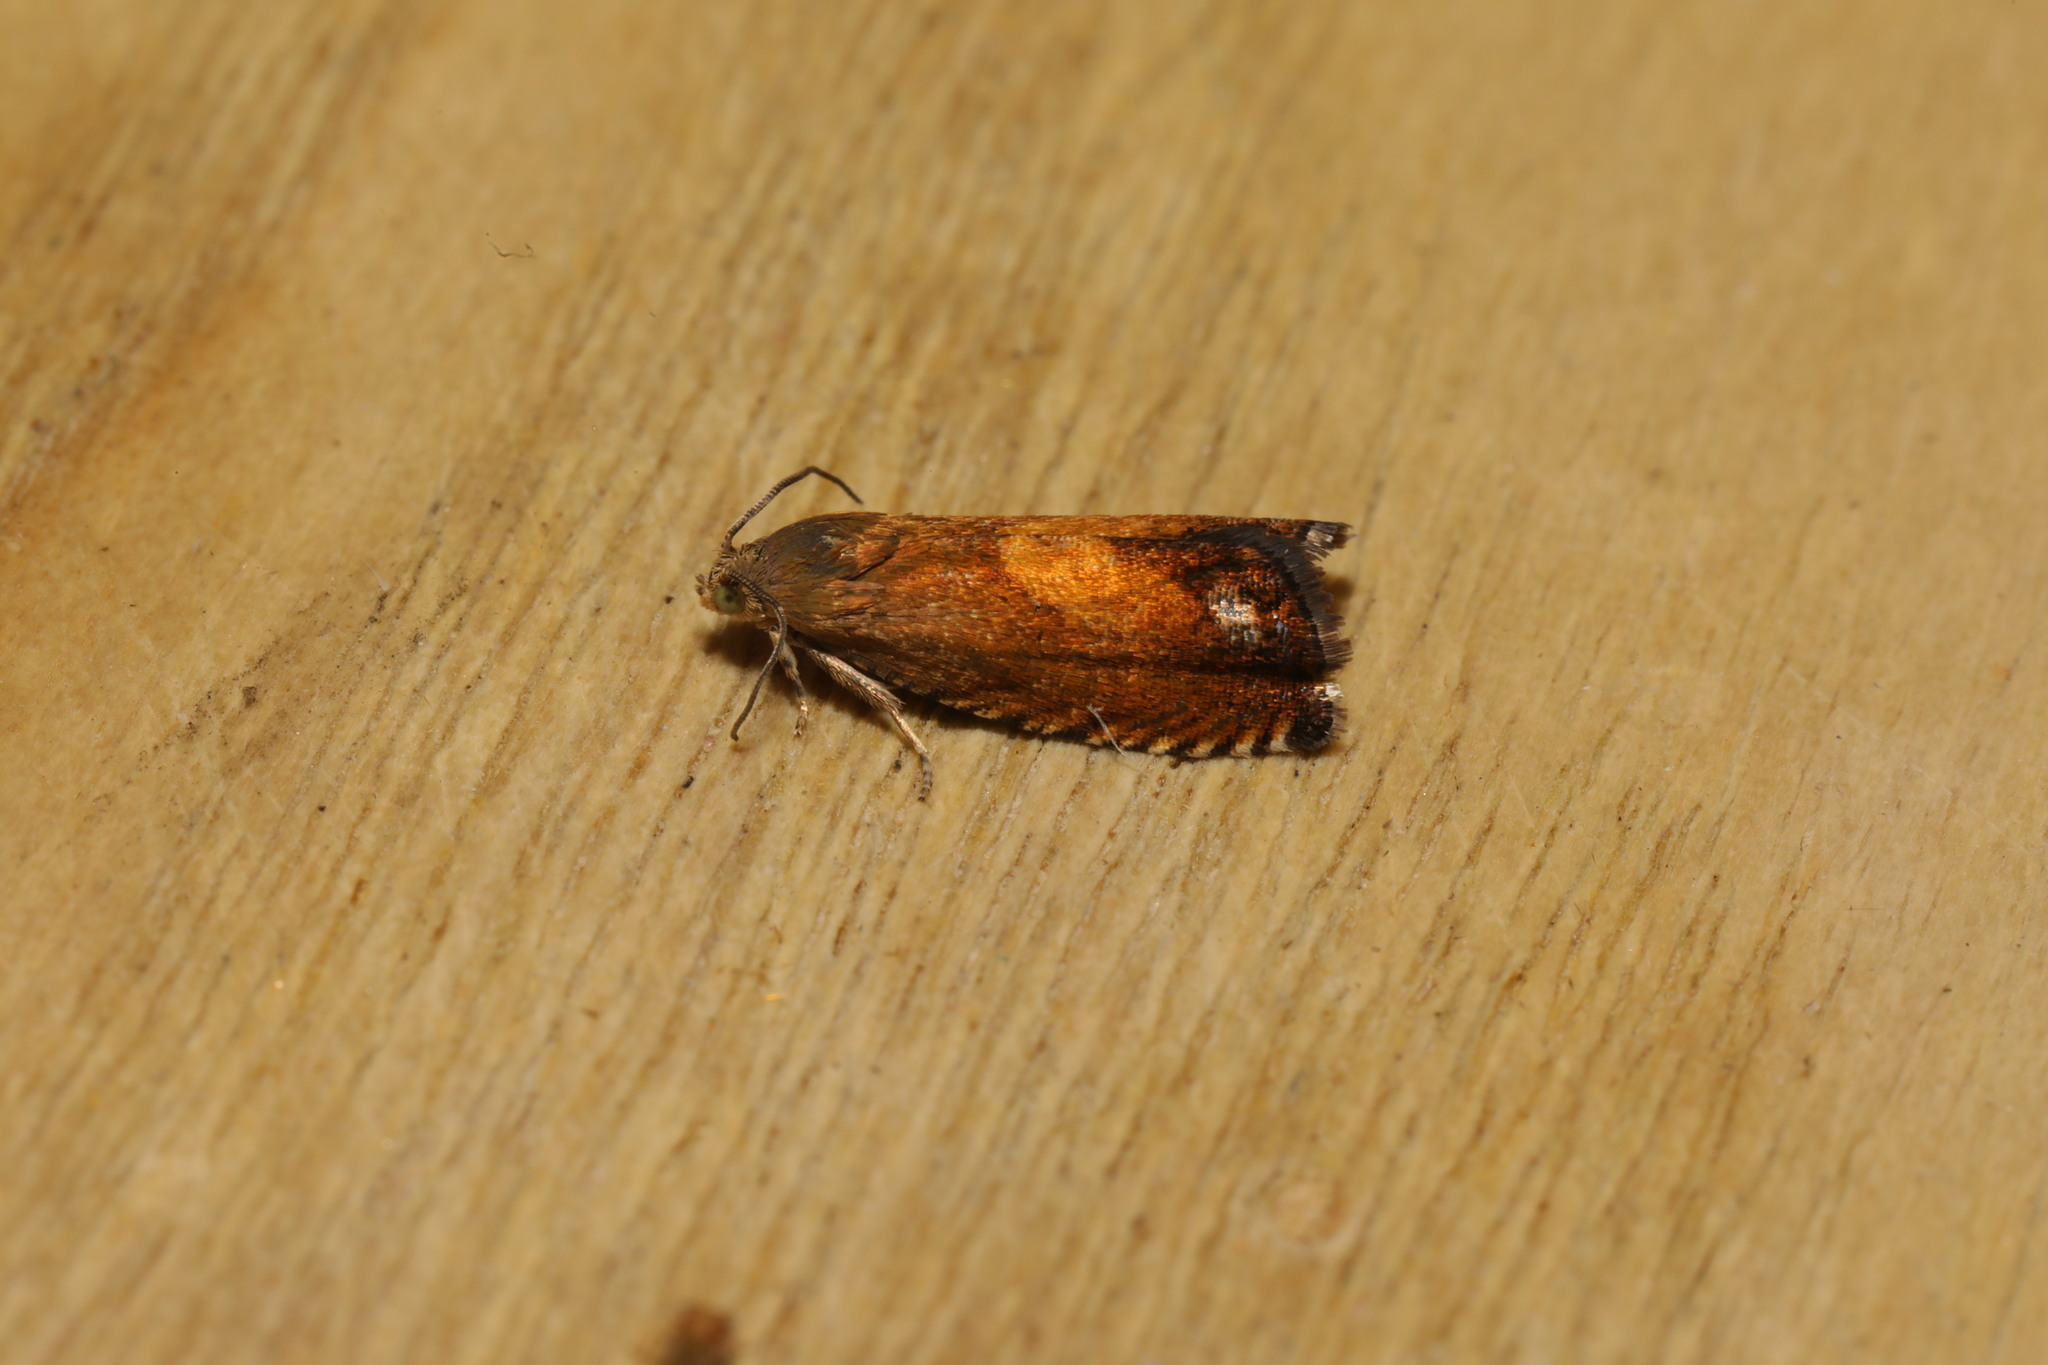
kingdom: Animalia
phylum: Arthropoda
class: Insecta
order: Lepidoptera
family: Tortricidae
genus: Pammene
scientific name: Pammene aurita
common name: Sycamore piercer
